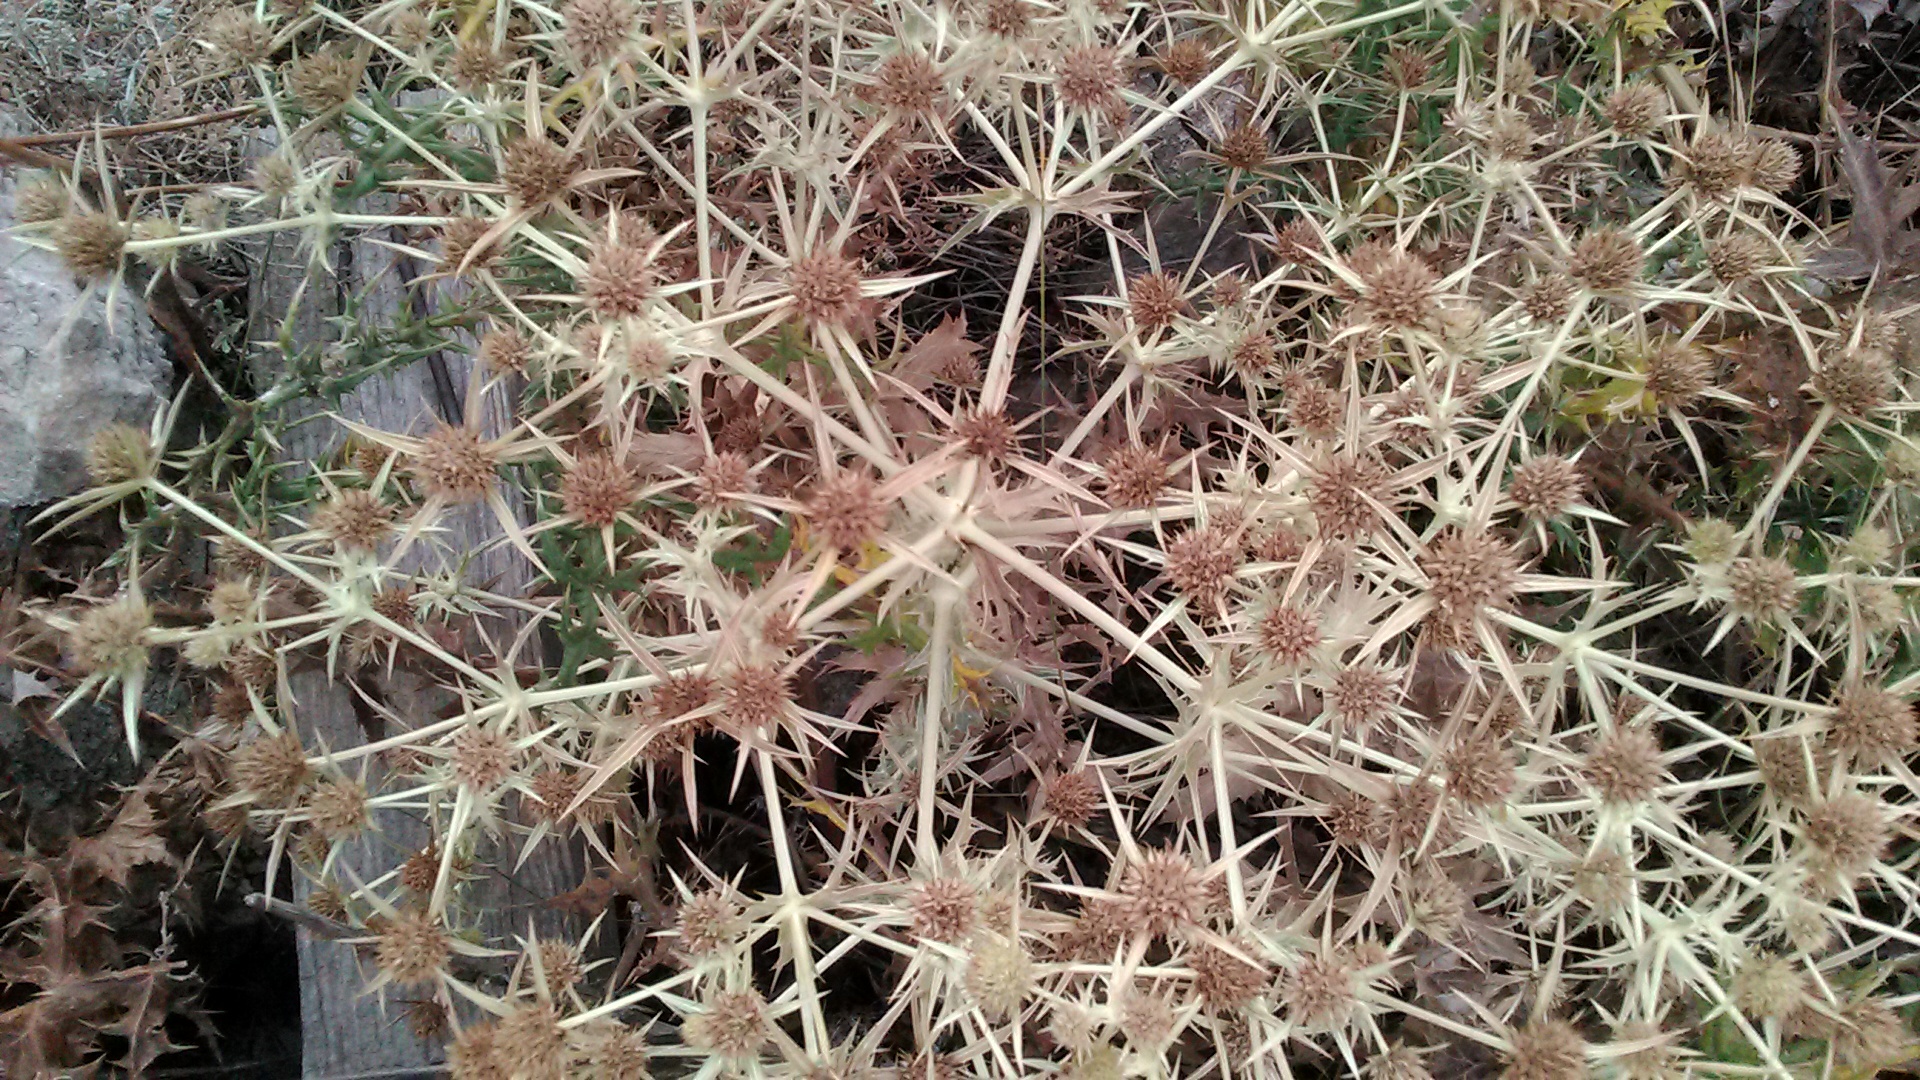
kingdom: Plantae
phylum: Tracheophyta
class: Magnoliopsida
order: Apiales
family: Apiaceae
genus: Eryngium
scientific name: Eryngium campestre
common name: Field eryngo
